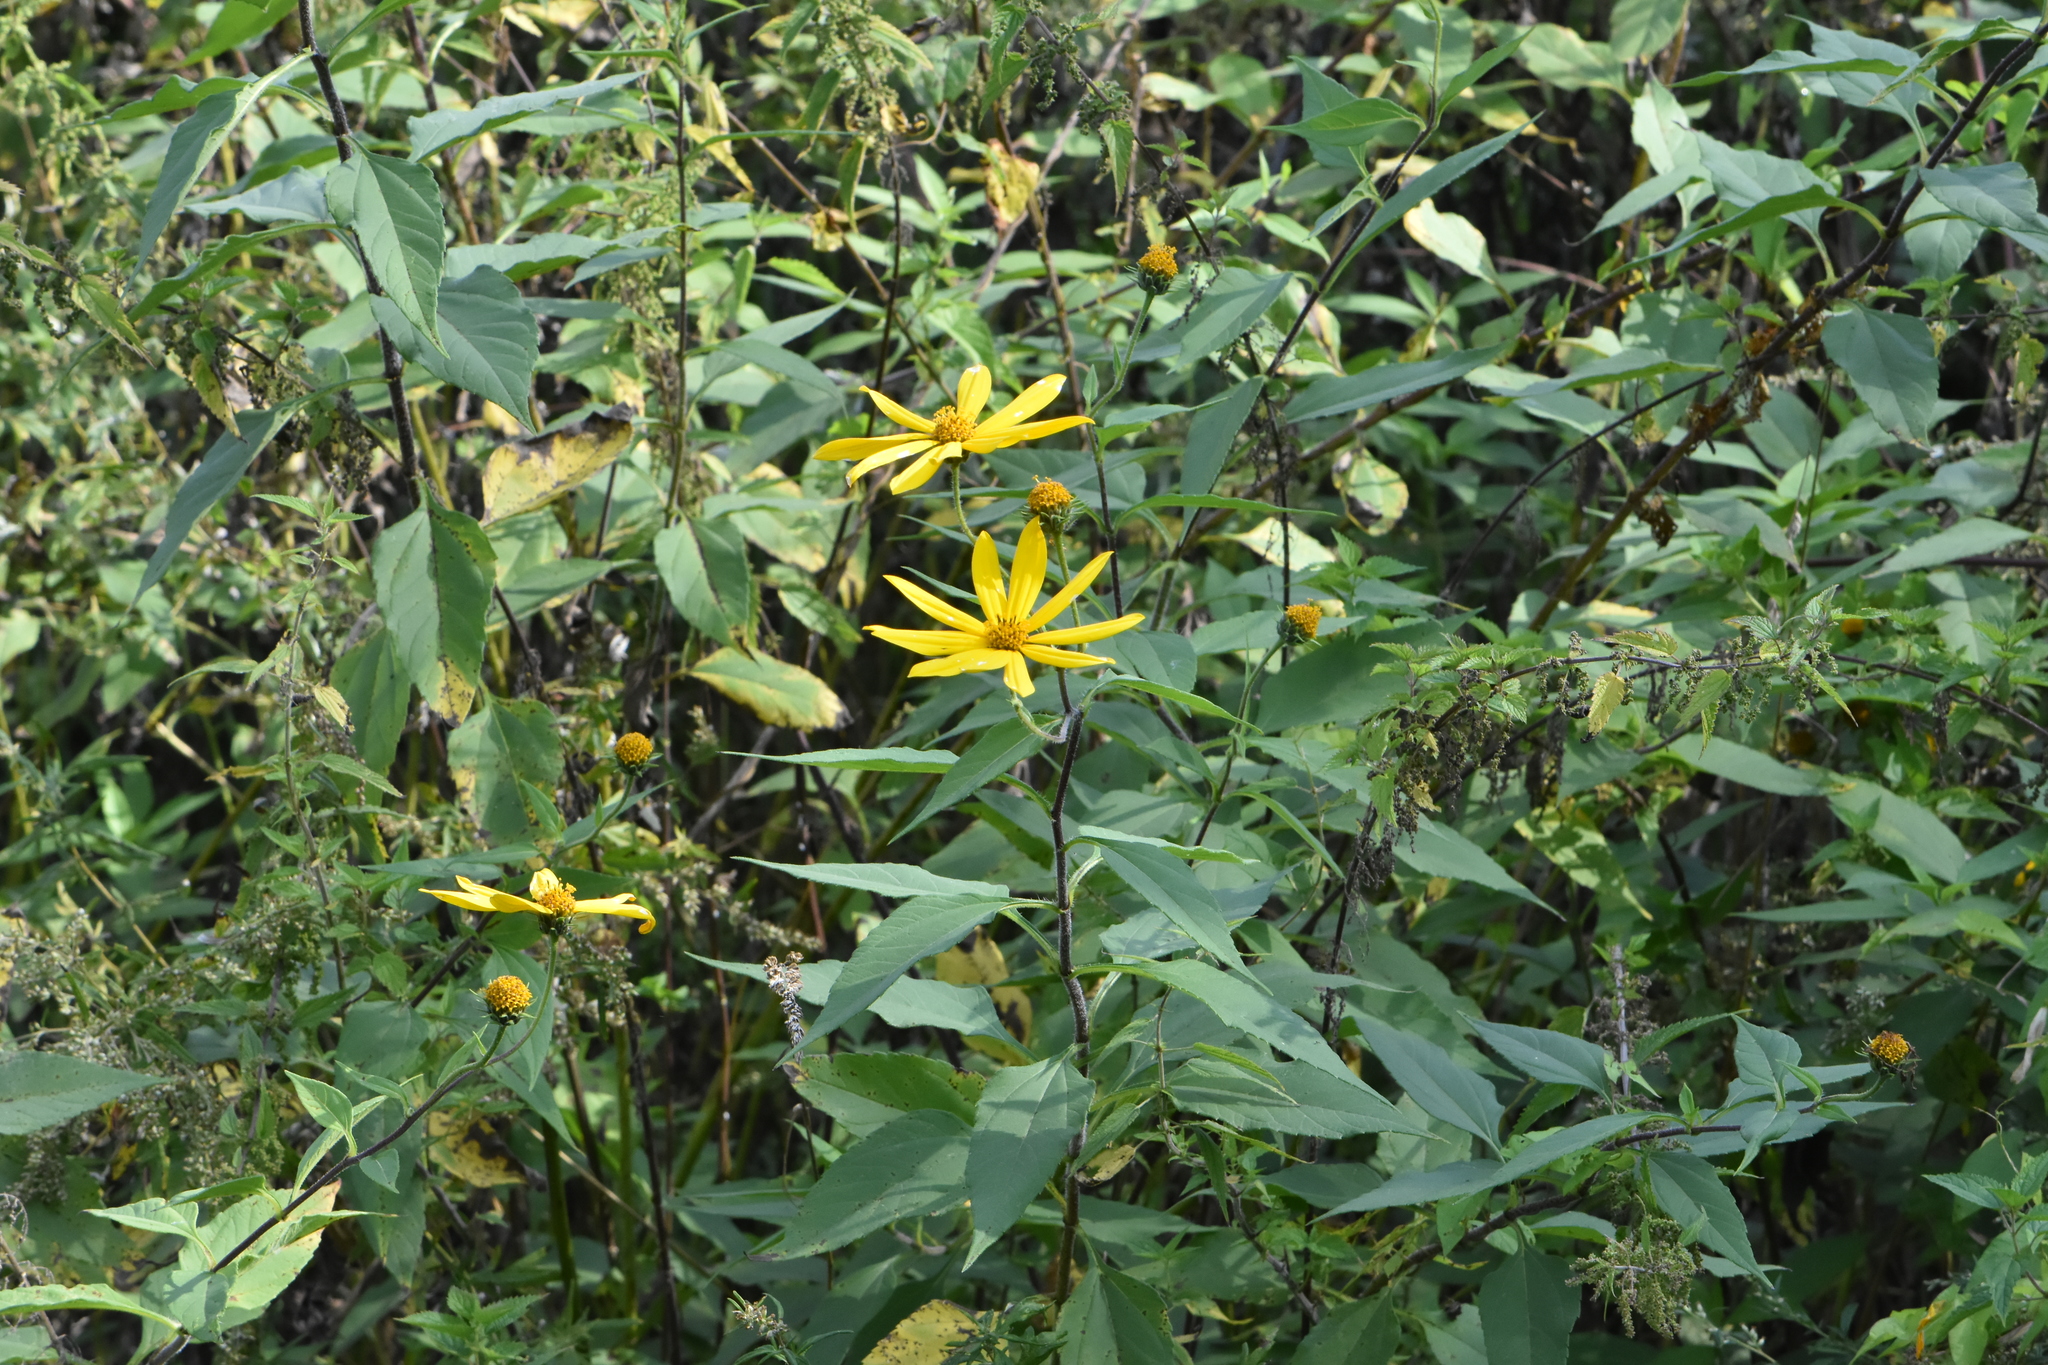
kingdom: Plantae
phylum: Tracheophyta
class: Magnoliopsida
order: Asterales
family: Asteraceae
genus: Helianthus
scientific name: Helianthus tuberosus
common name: Jerusalem artichoke
